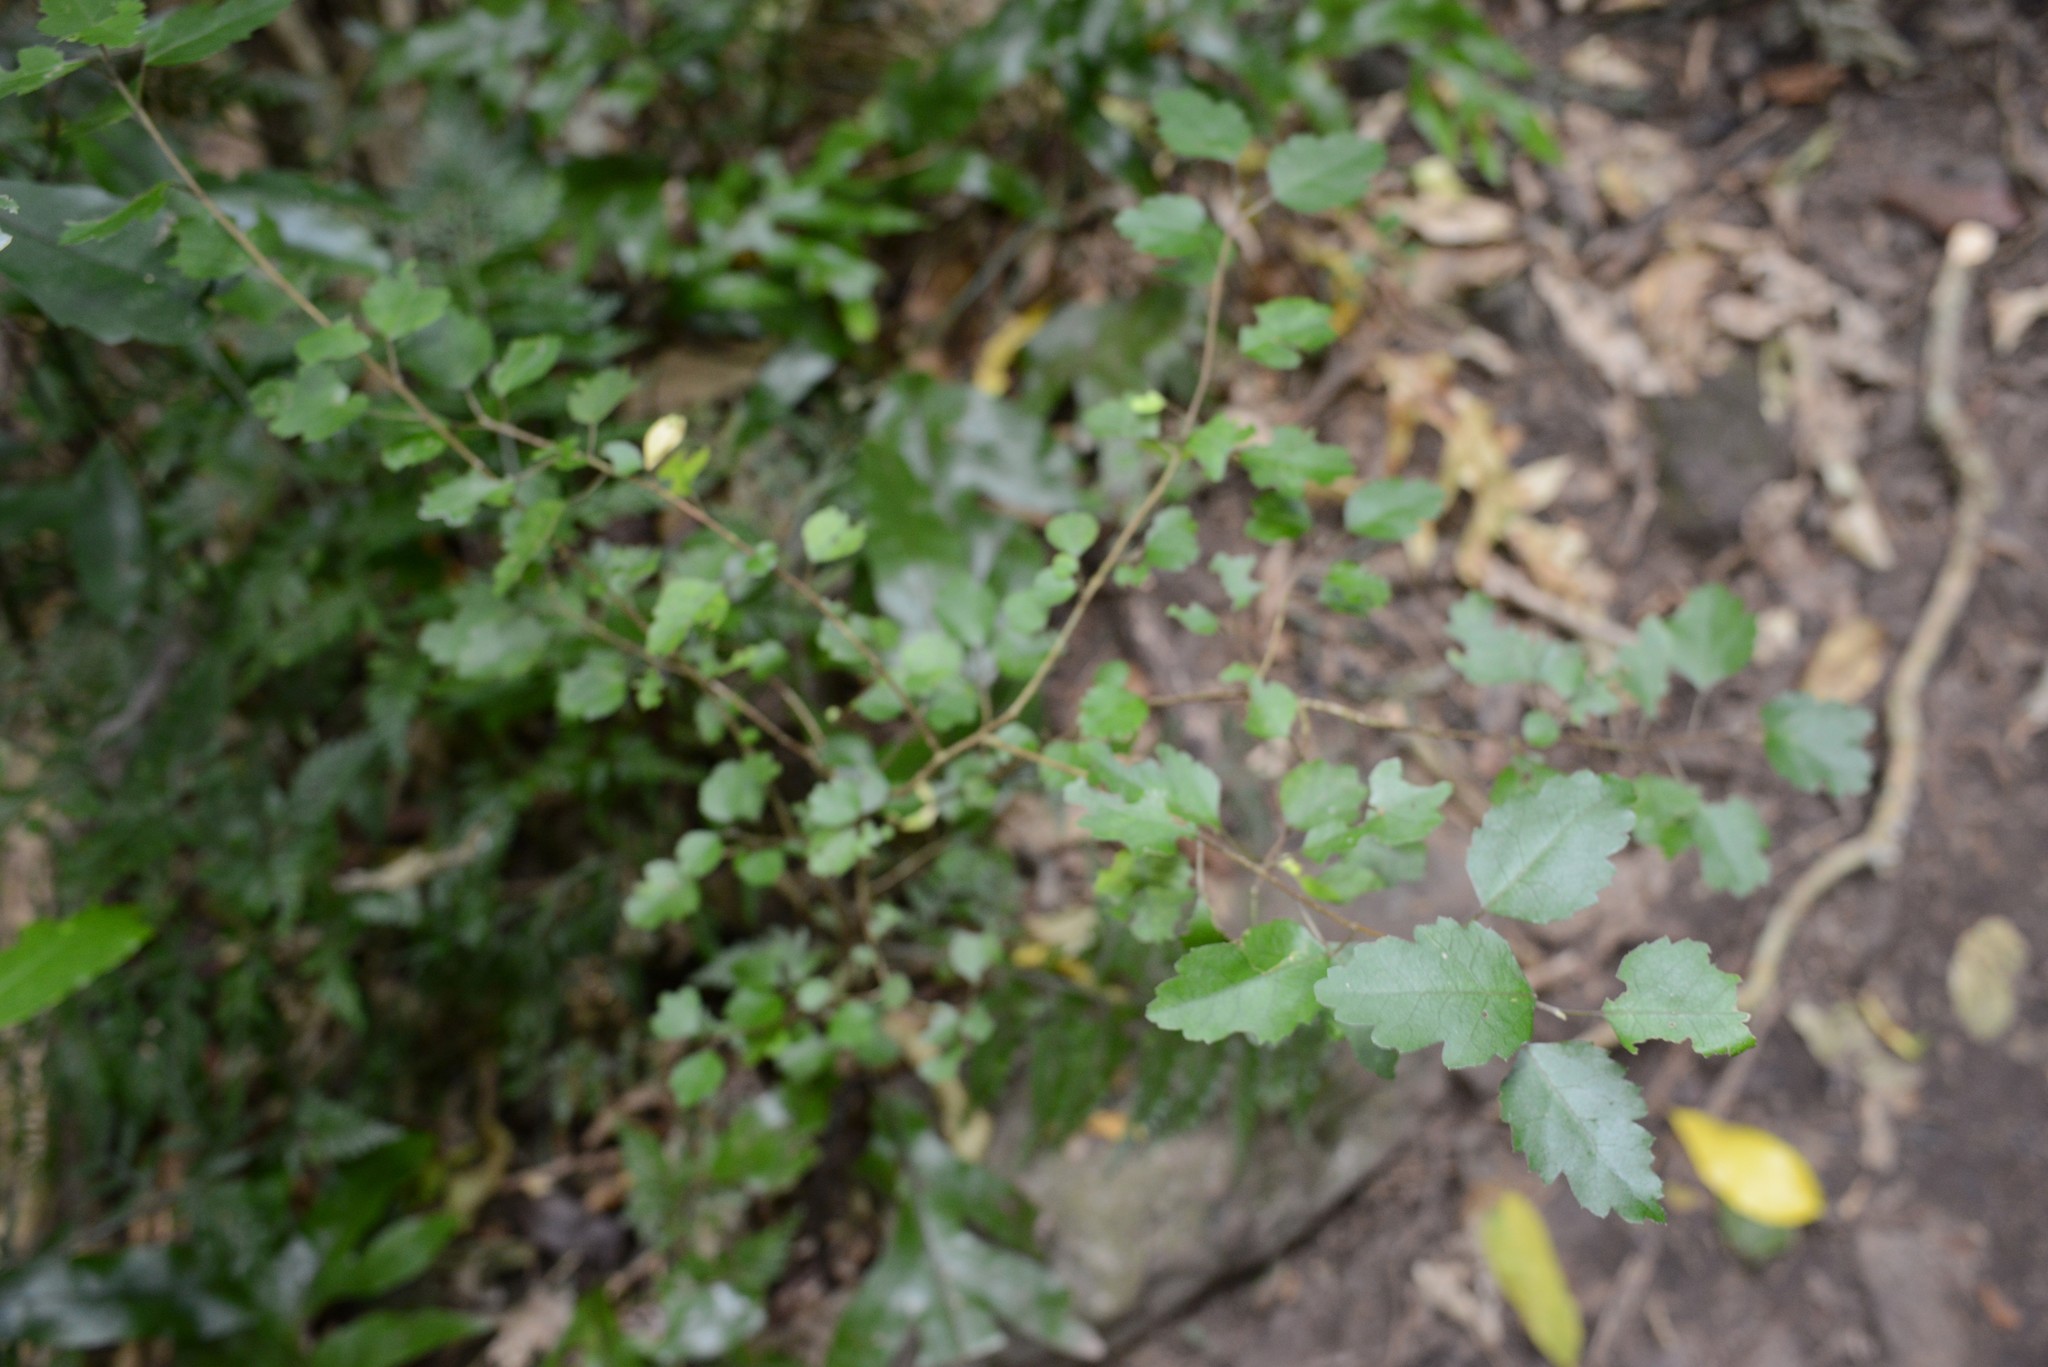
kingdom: Plantae
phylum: Tracheophyta
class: Magnoliopsida
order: Malpighiales
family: Violaceae
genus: Melicytus
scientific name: Melicytus micranthus
